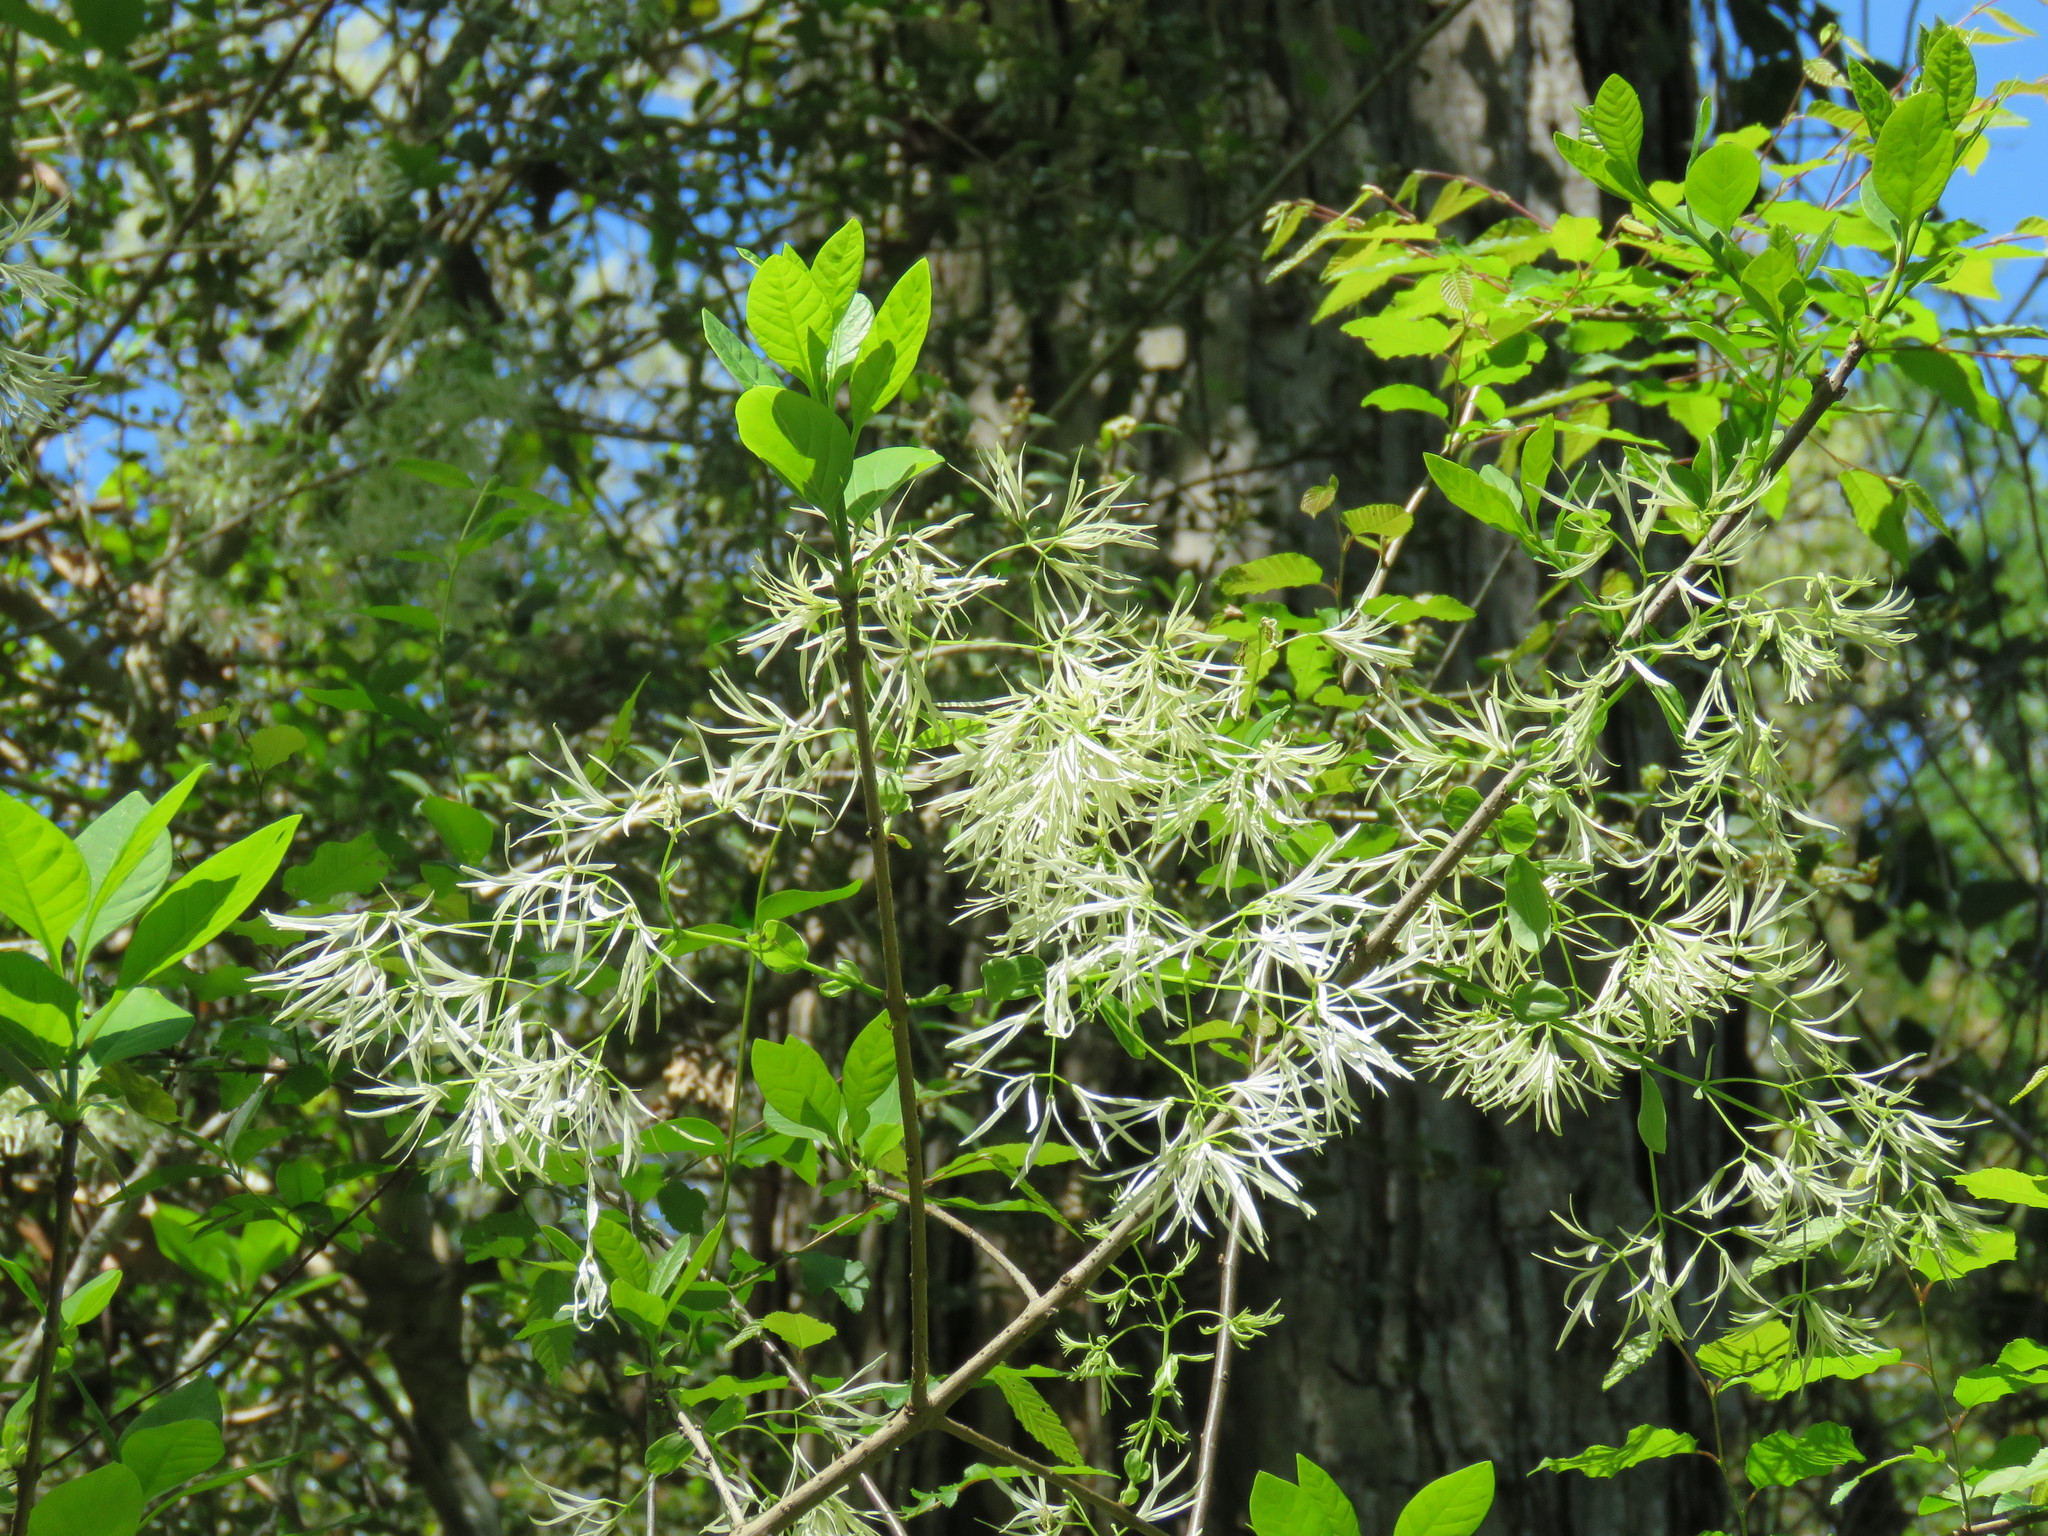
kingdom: Plantae
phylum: Tracheophyta
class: Magnoliopsida
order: Lamiales
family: Oleaceae
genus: Chionanthus
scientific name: Chionanthus virginicus
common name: American fringetree
